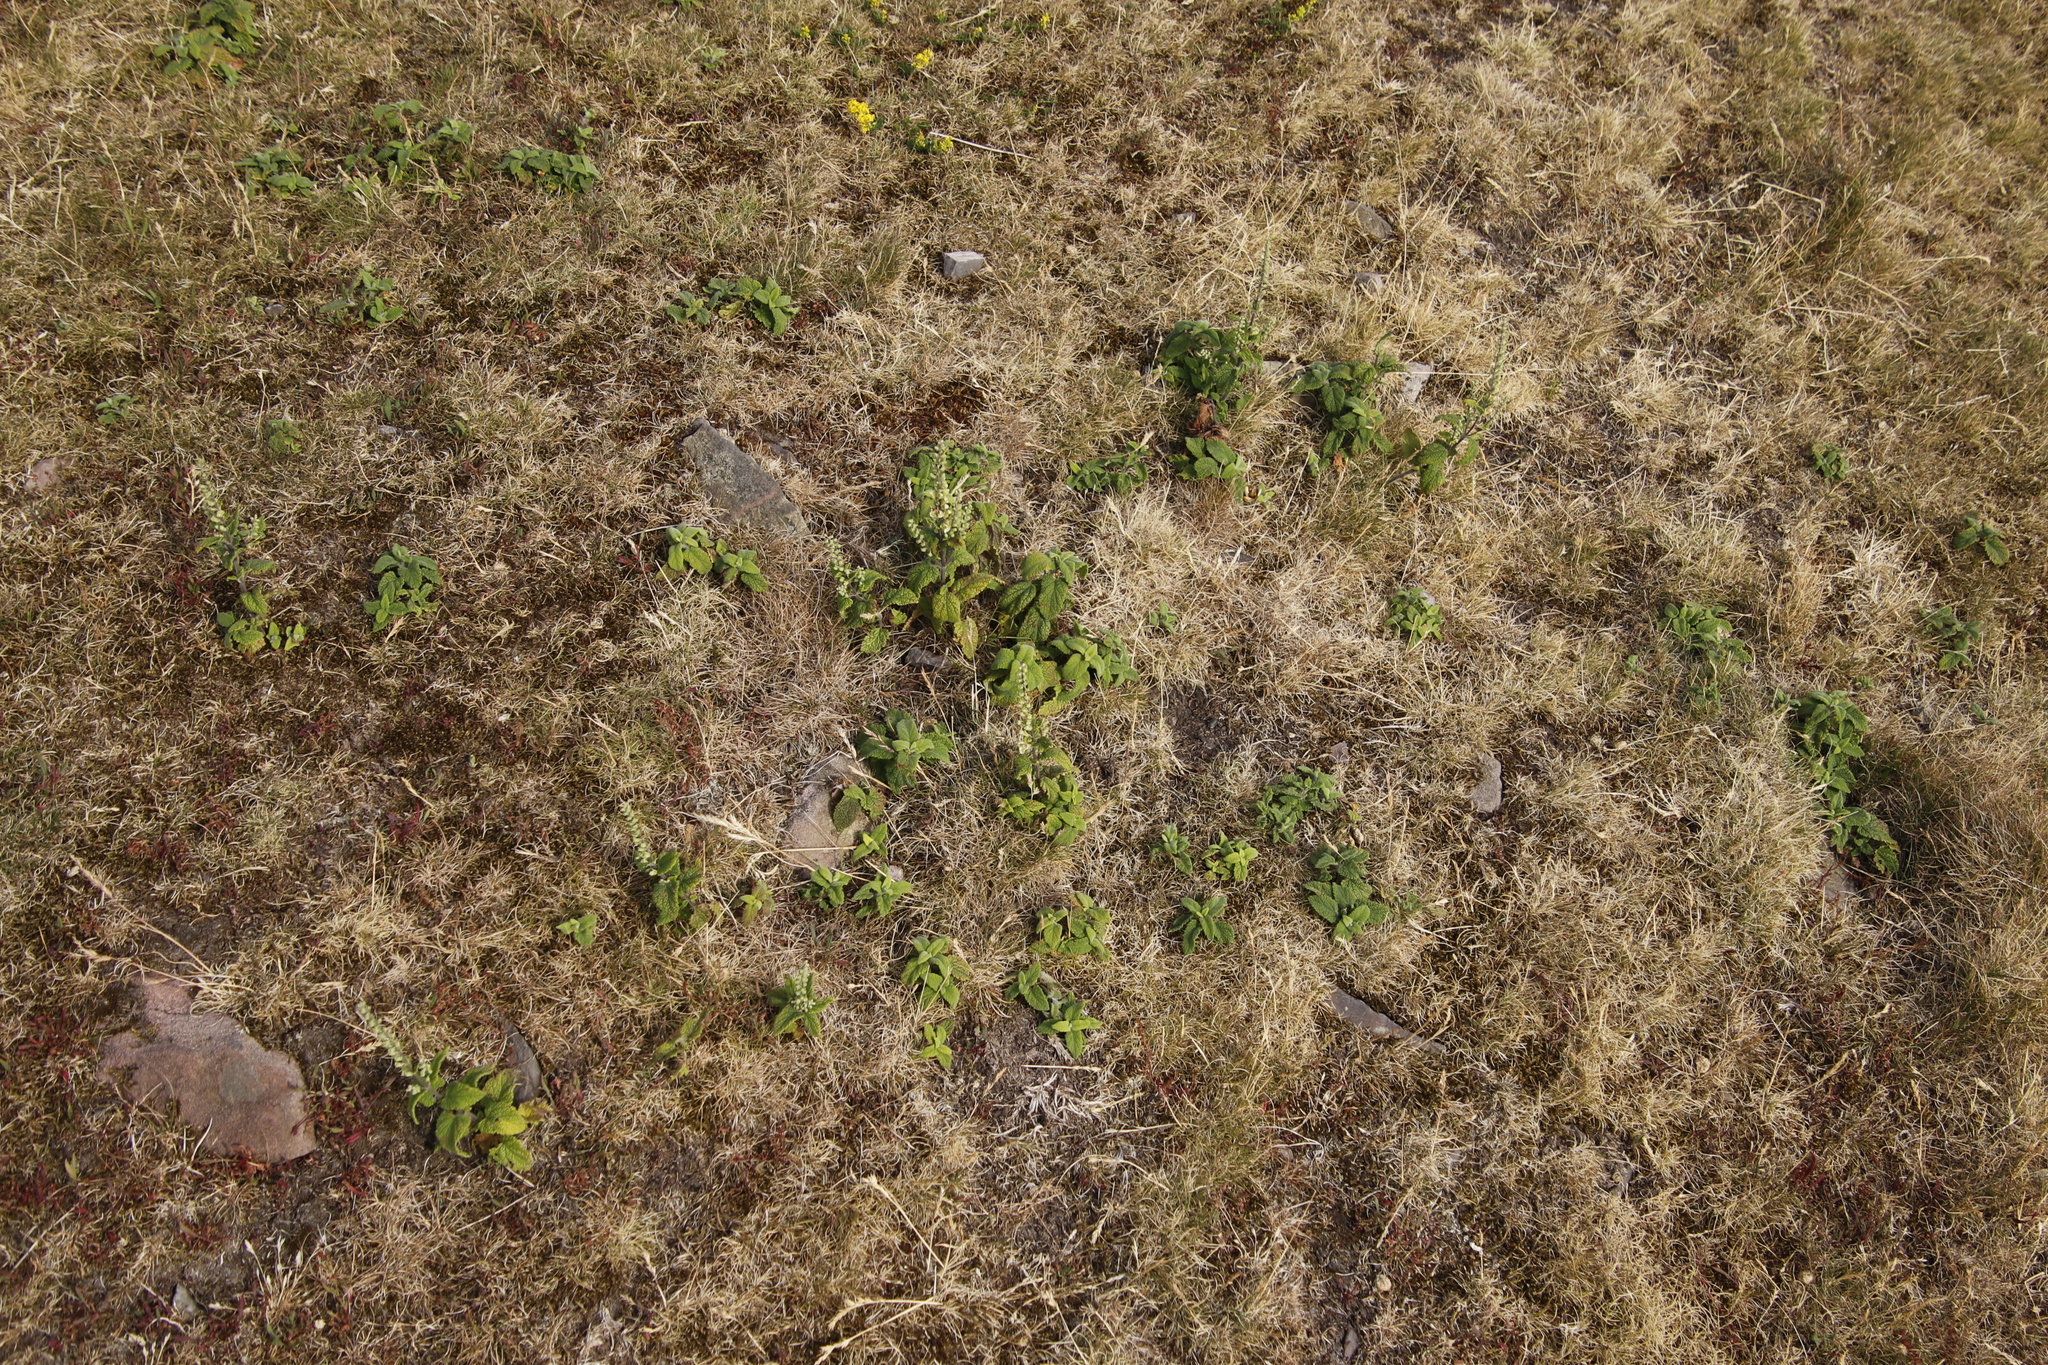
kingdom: Plantae
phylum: Tracheophyta
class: Magnoliopsida
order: Lamiales
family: Lamiaceae
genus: Teucrium
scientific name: Teucrium scorodonia
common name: Woodland germander
